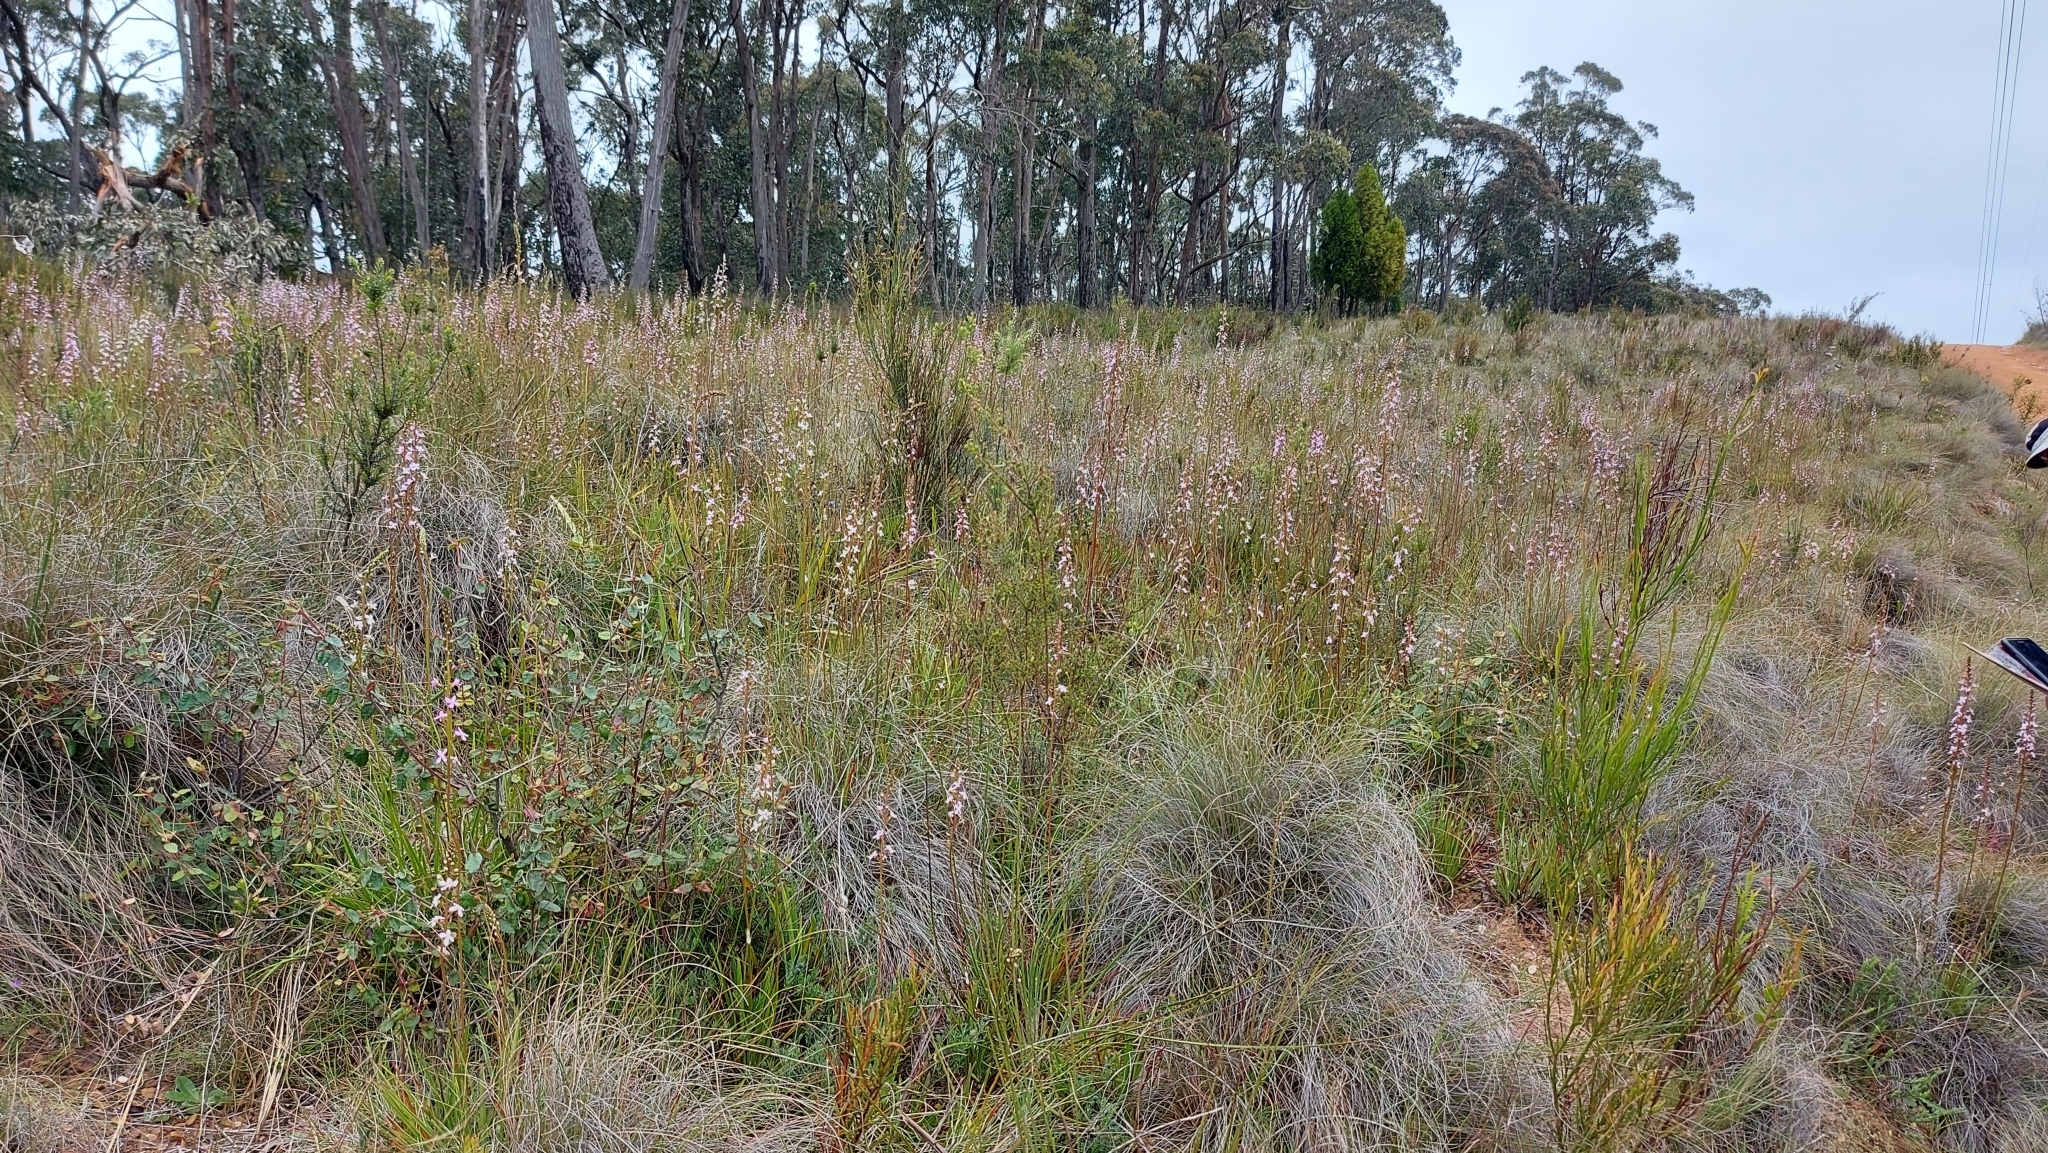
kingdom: Plantae
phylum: Tracheophyta
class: Magnoliopsida
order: Asterales
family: Stylidiaceae
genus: Stylidium
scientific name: Stylidium graminifolium
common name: Grass triggerplant
